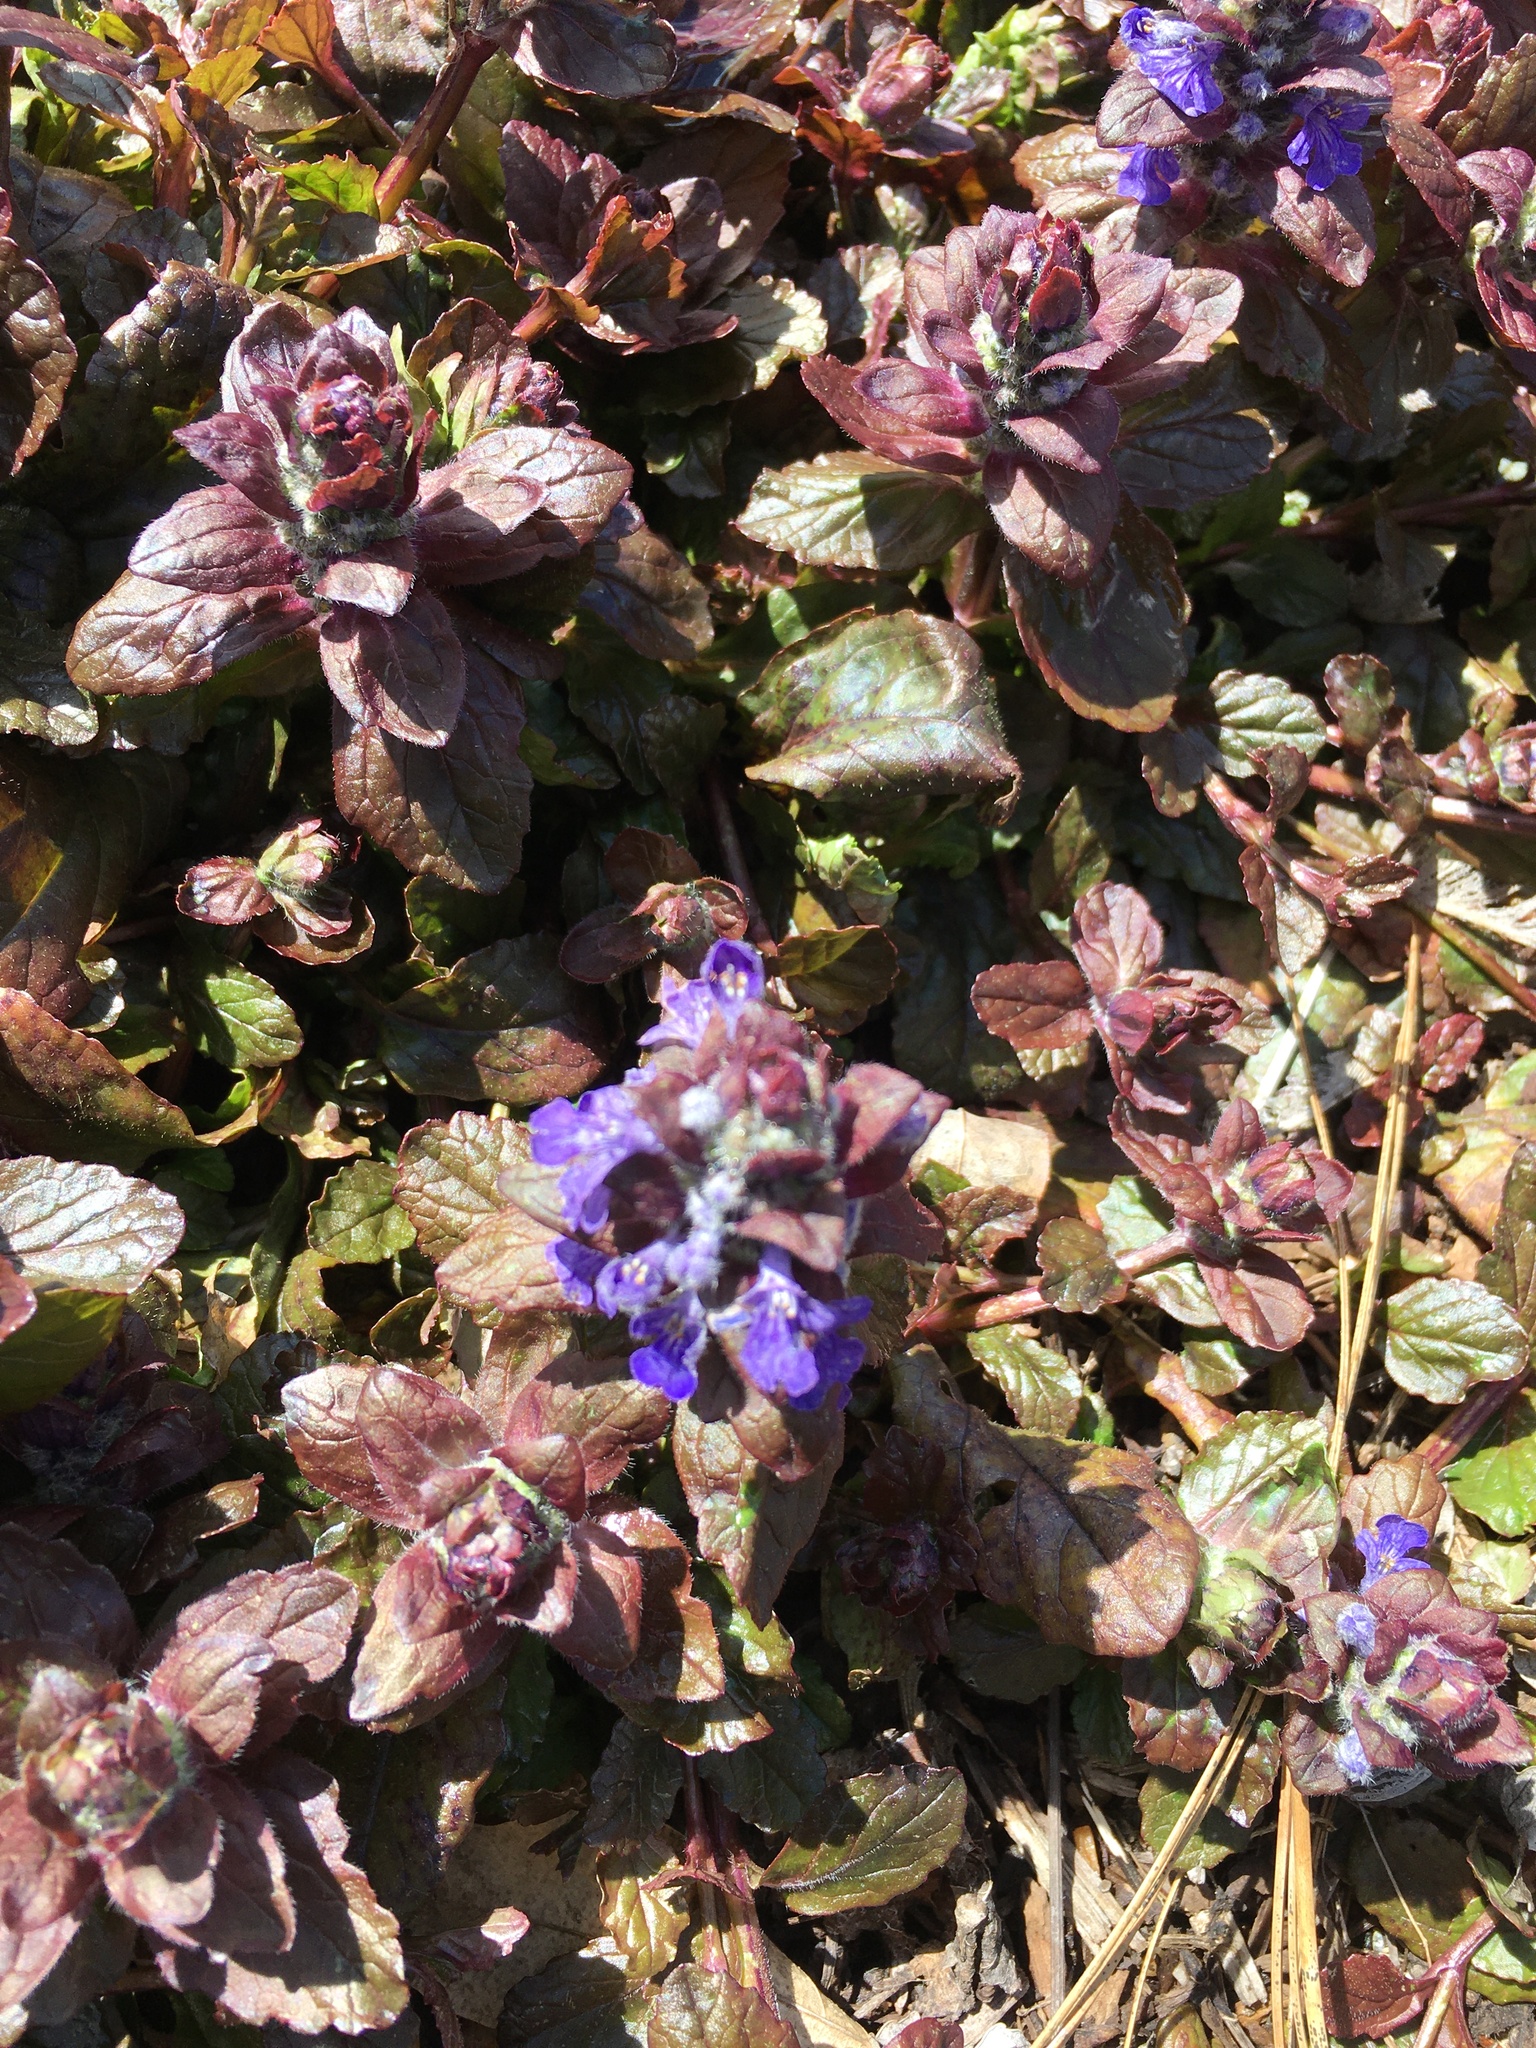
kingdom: Plantae
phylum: Tracheophyta
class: Magnoliopsida
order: Lamiales
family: Lamiaceae
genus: Ajuga
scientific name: Ajuga reptans
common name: Bugle
